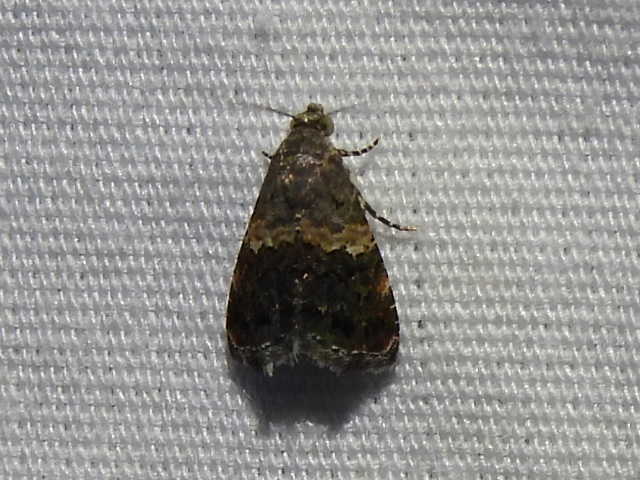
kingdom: Animalia
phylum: Arthropoda
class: Insecta
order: Lepidoptera
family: Noctuidae
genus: Tripudia
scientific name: Tripudia luxuriosa
